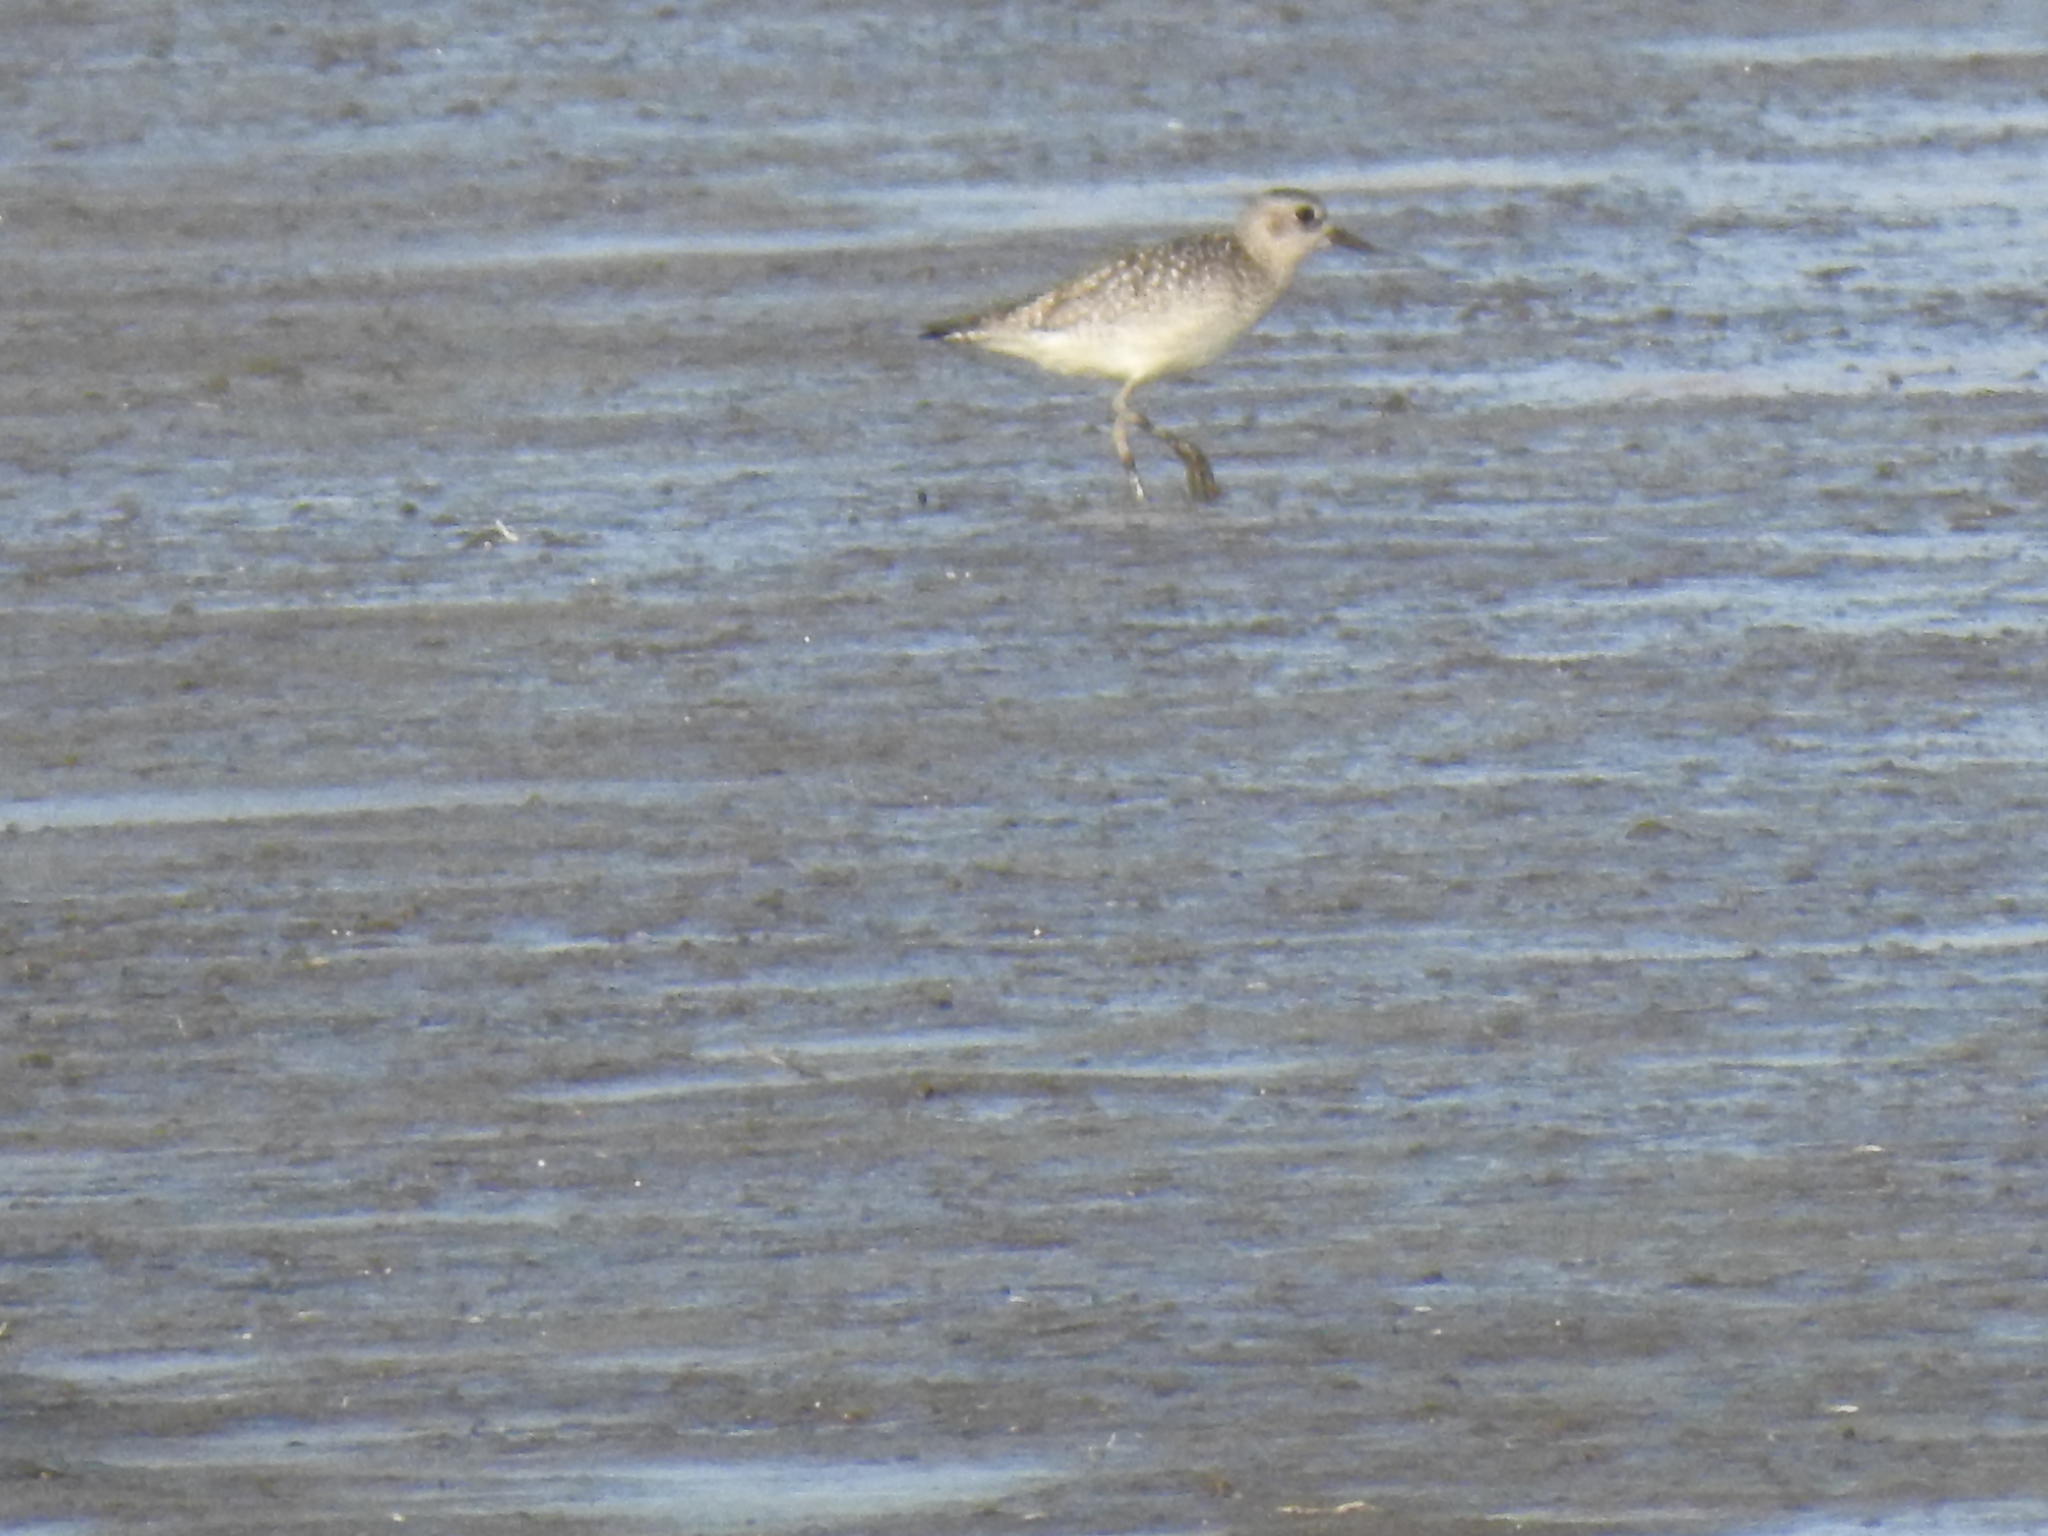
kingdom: Animalia
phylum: Chordata
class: Aves
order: Charadriiformes
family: Charadriidae
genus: Pluvialis
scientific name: Pluvialis squatarola
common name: Grey plover
